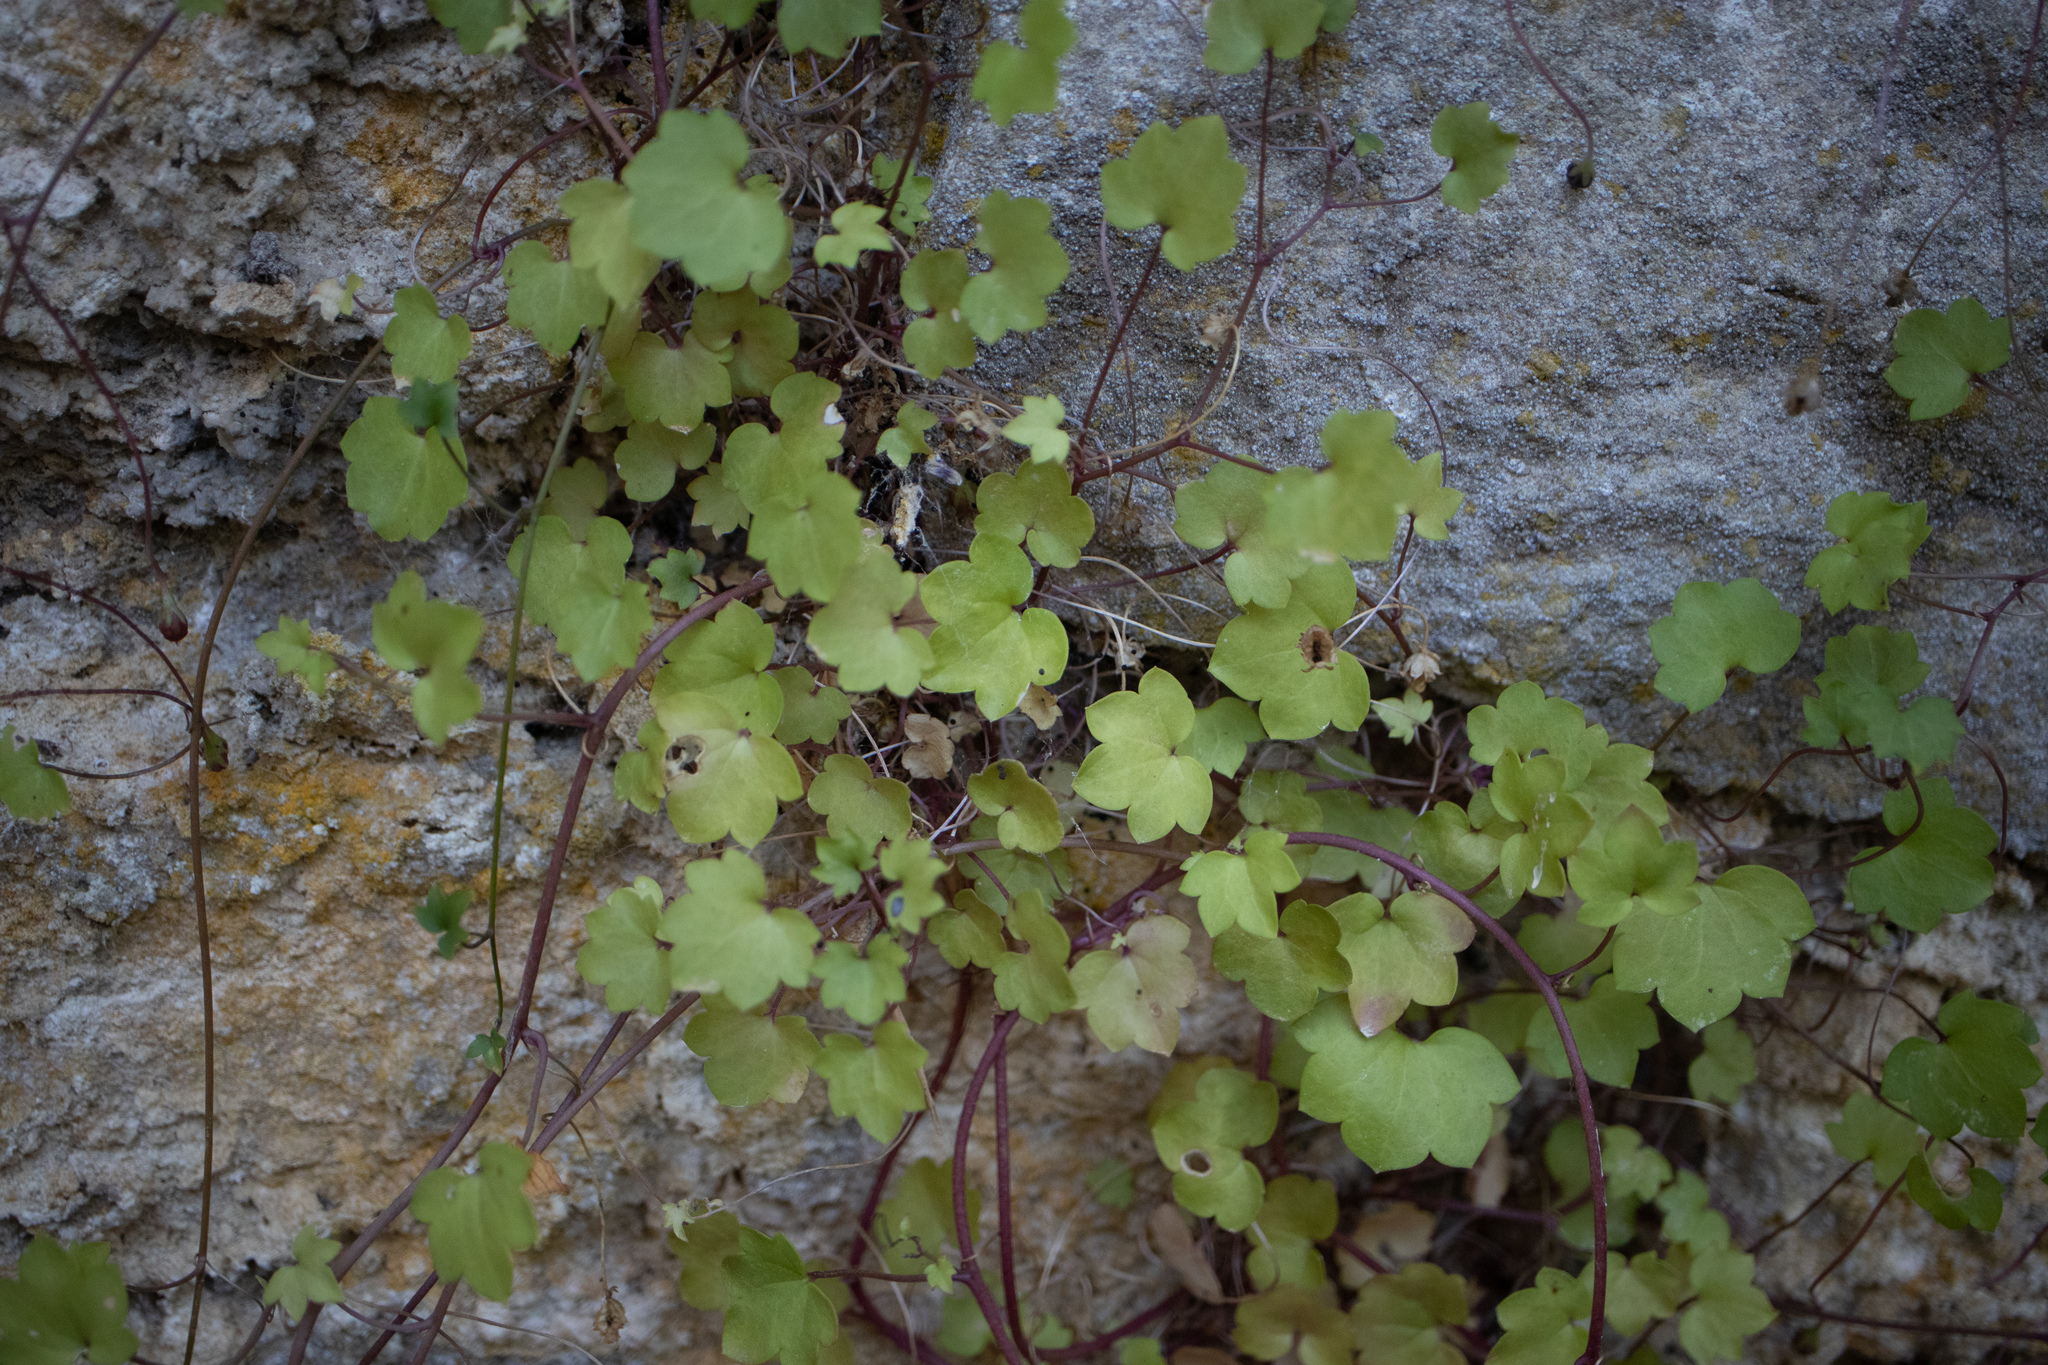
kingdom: Plantae
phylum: Tracheophyta
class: Magnoliopsida
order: Lamiales
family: Plantaginaceae
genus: Cymbalaria
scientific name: Cymbalaria muralis
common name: Ivy-leaved toadflax
